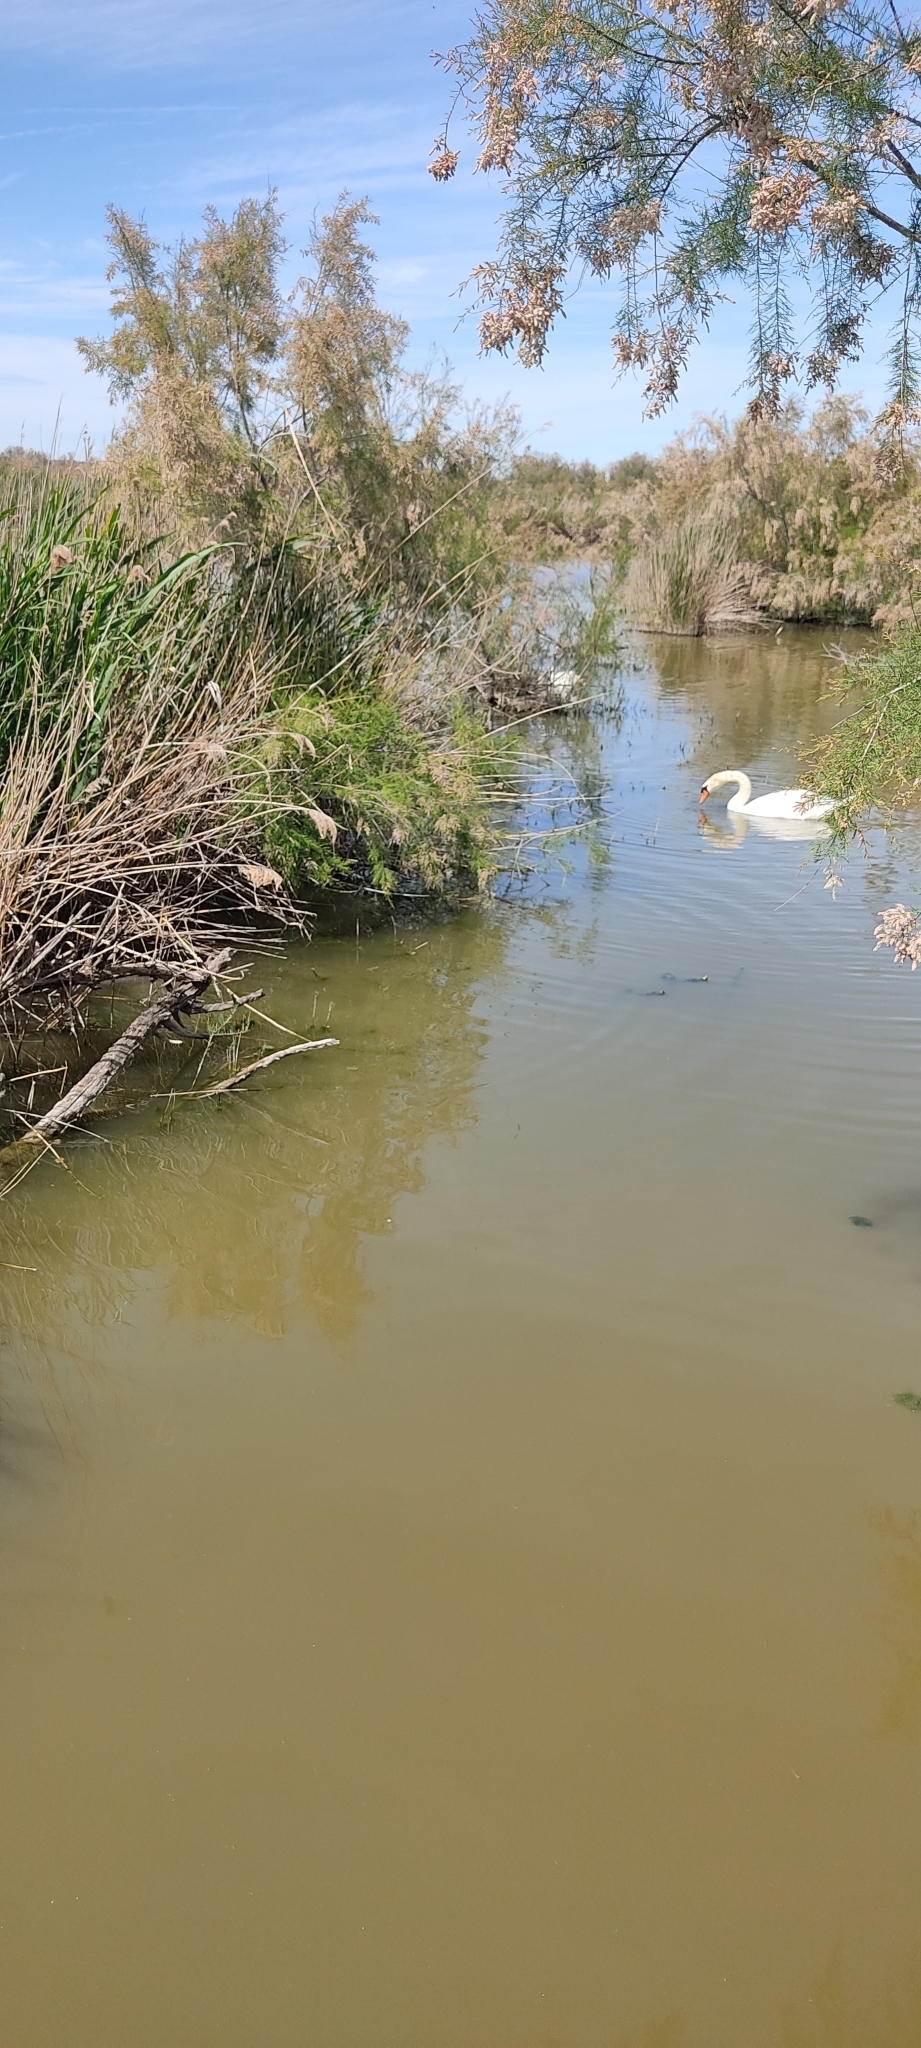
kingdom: Animalia
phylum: Chordata
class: Aves
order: Anseriformes
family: Anatidae
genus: Cygnus
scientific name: Cygnus olor
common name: Mute swan
